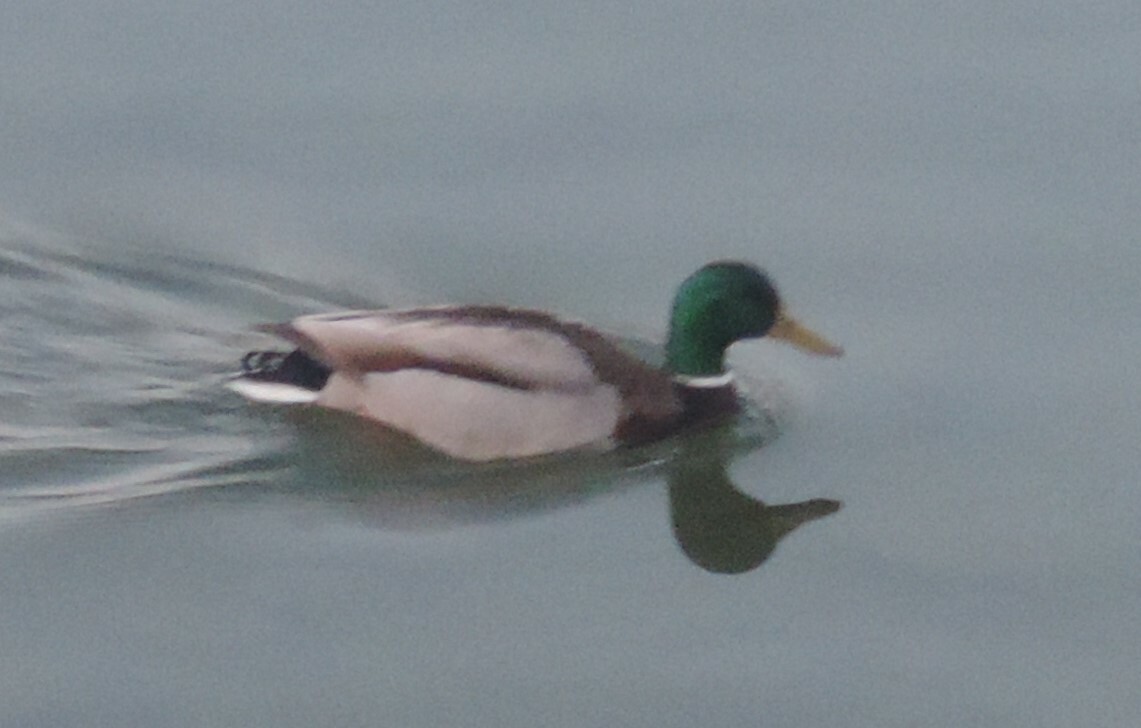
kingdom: Animalia
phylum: Chordata
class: Aves
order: Anseriformes
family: Anatidae
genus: Anas
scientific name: Anas platyrhynchos
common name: Mallard
